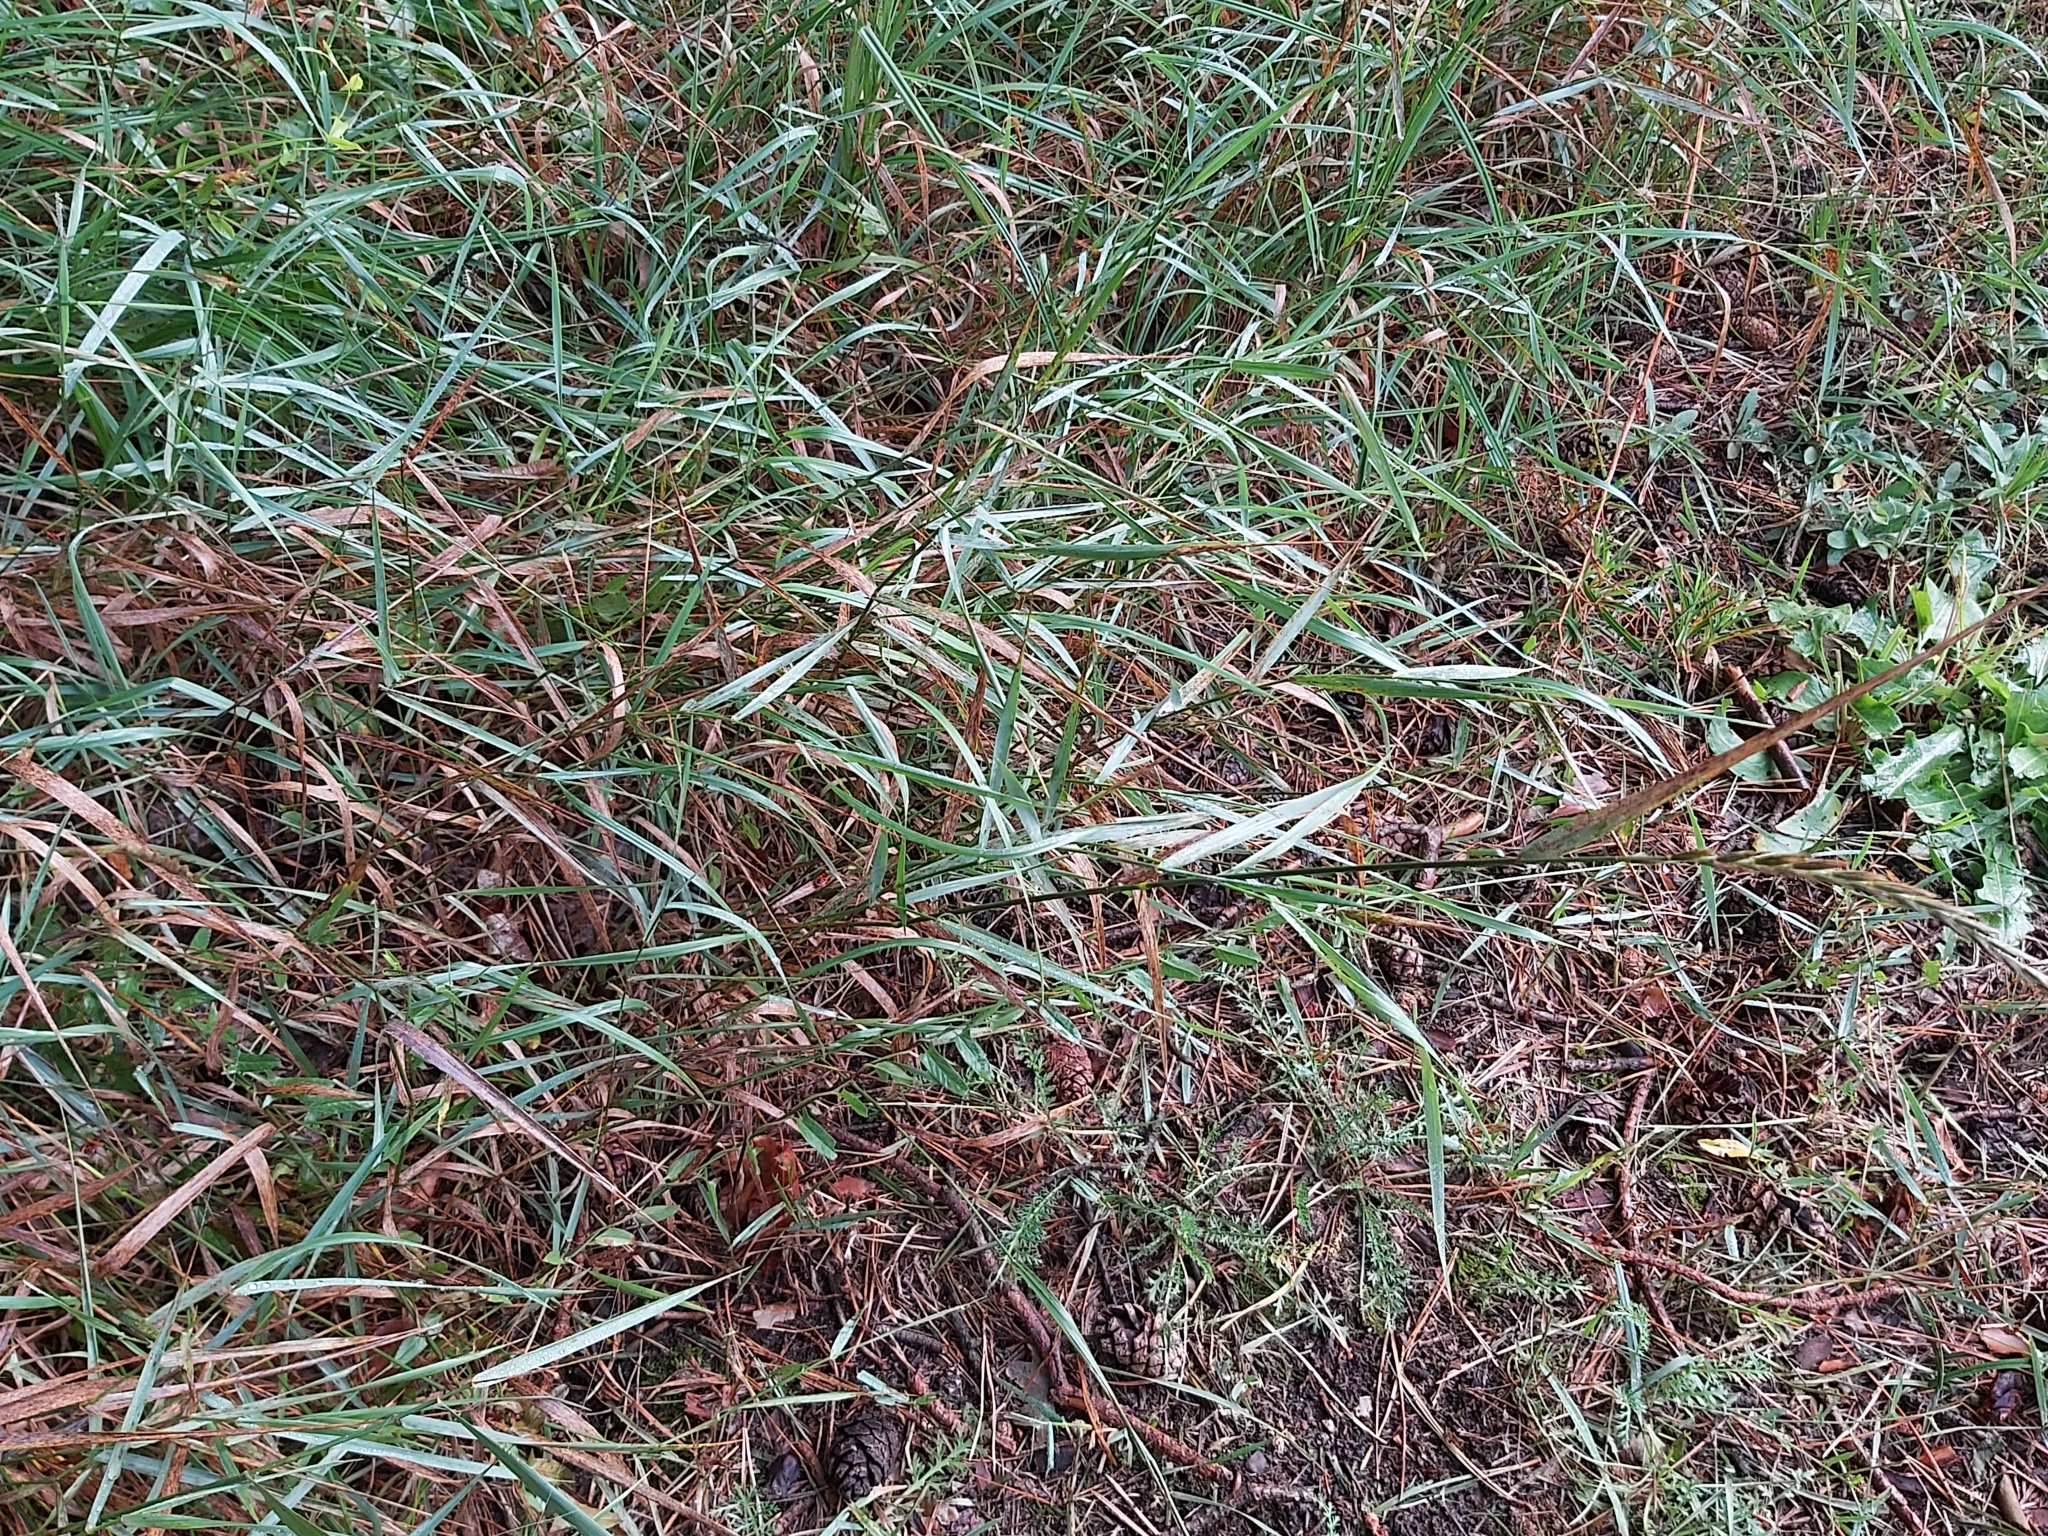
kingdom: Plantae
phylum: Tracheophyta
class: Liliopsida
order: Poales
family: Poaceae
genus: Elymus
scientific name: Elymus repens
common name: Quackgrass
